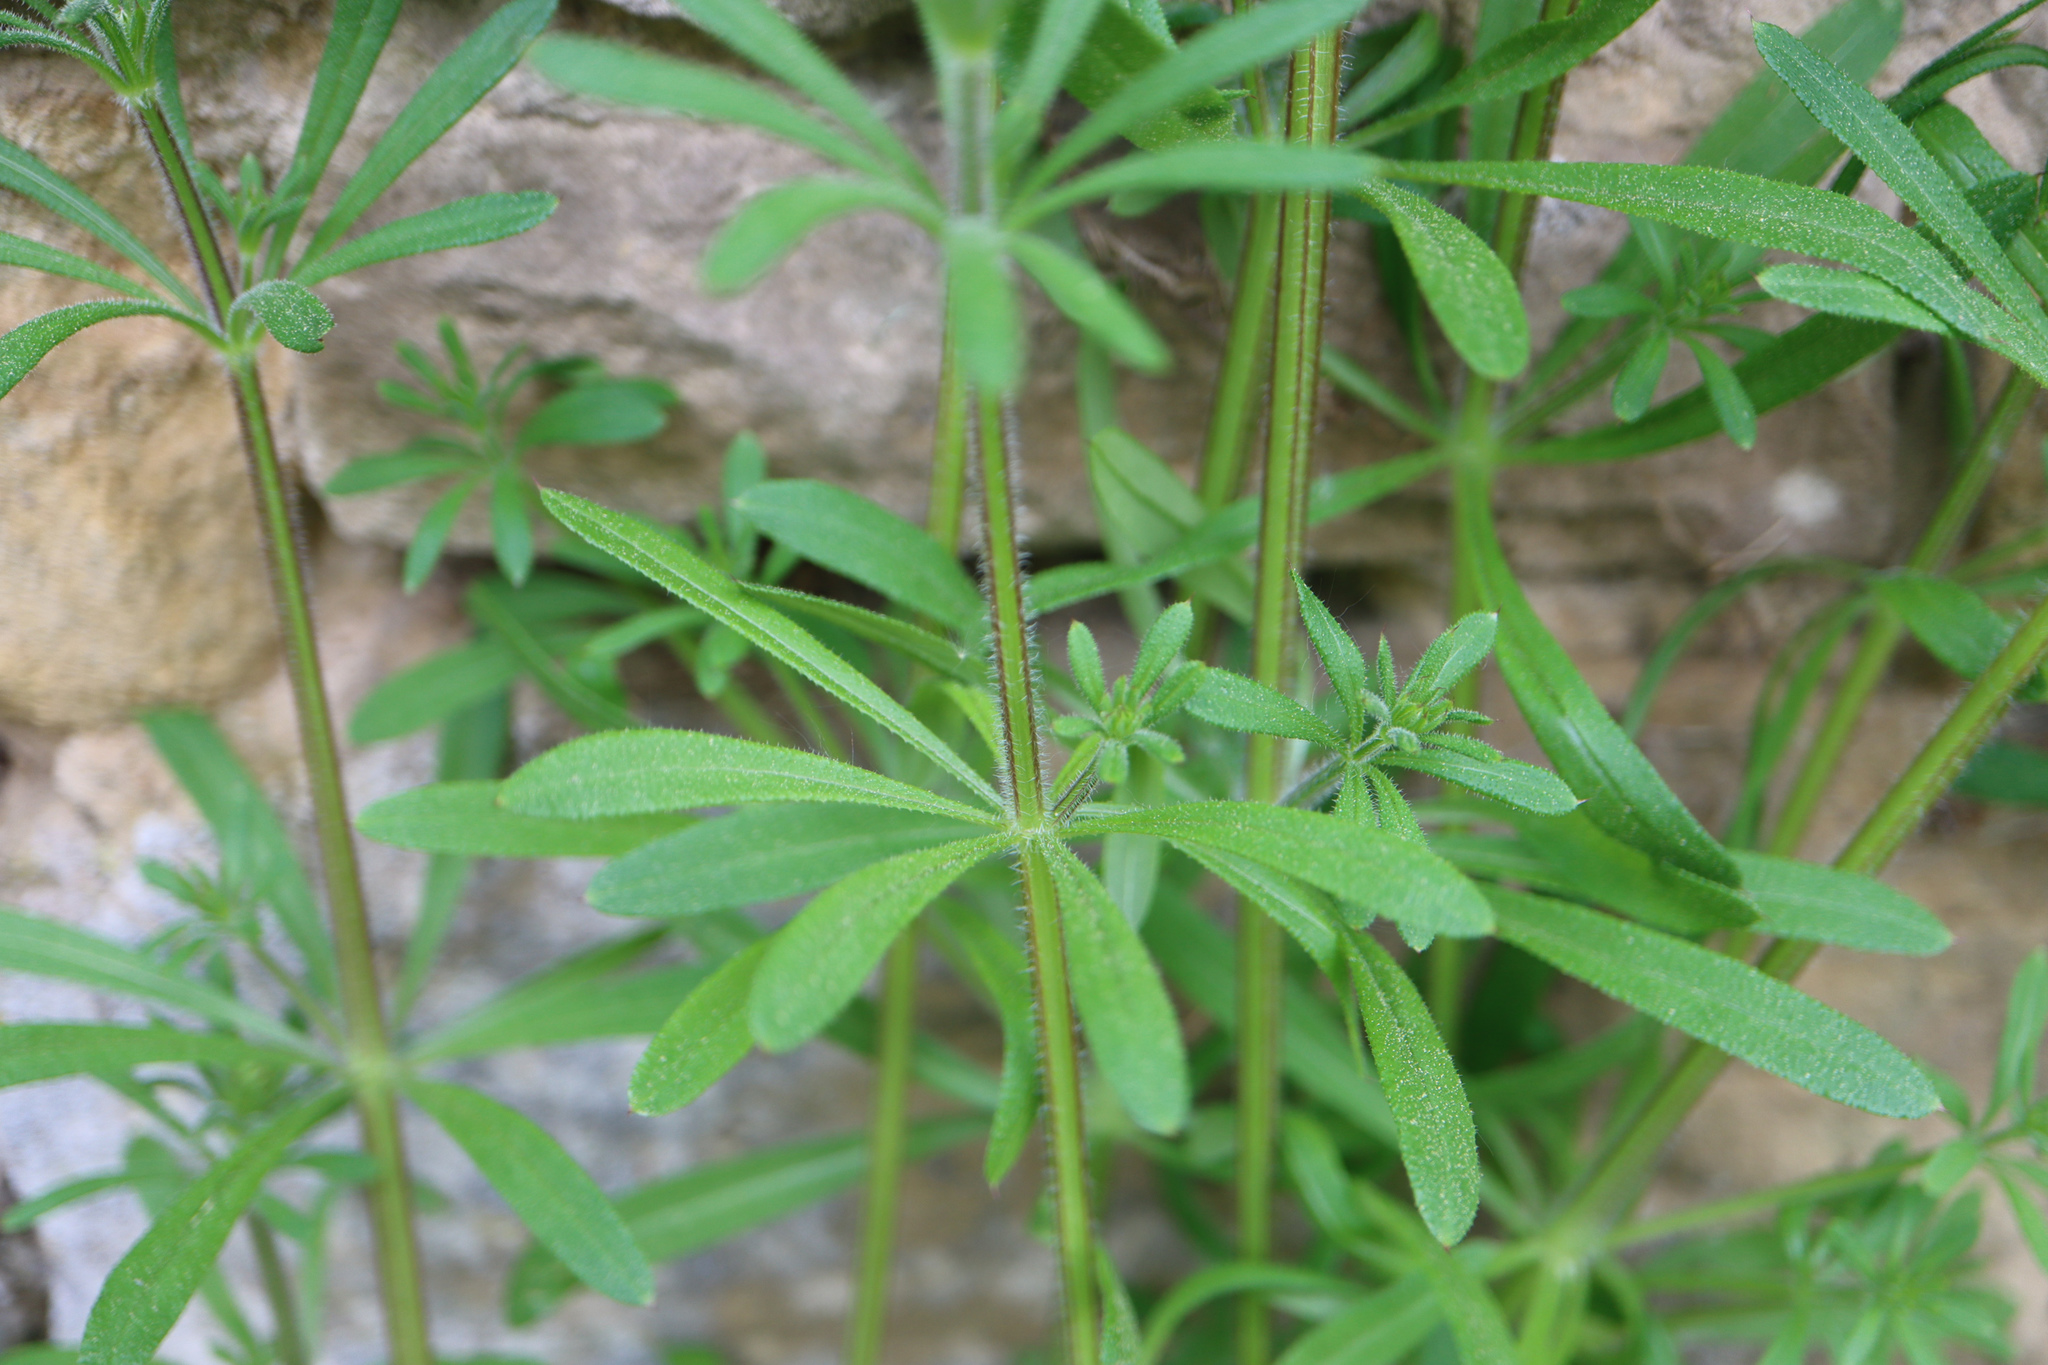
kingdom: Plantae
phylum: Tracheophyta
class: Magnoliopsida
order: Gentianales
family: Rubiaceae
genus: Galium
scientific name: Galium aparine
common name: Cleavers
